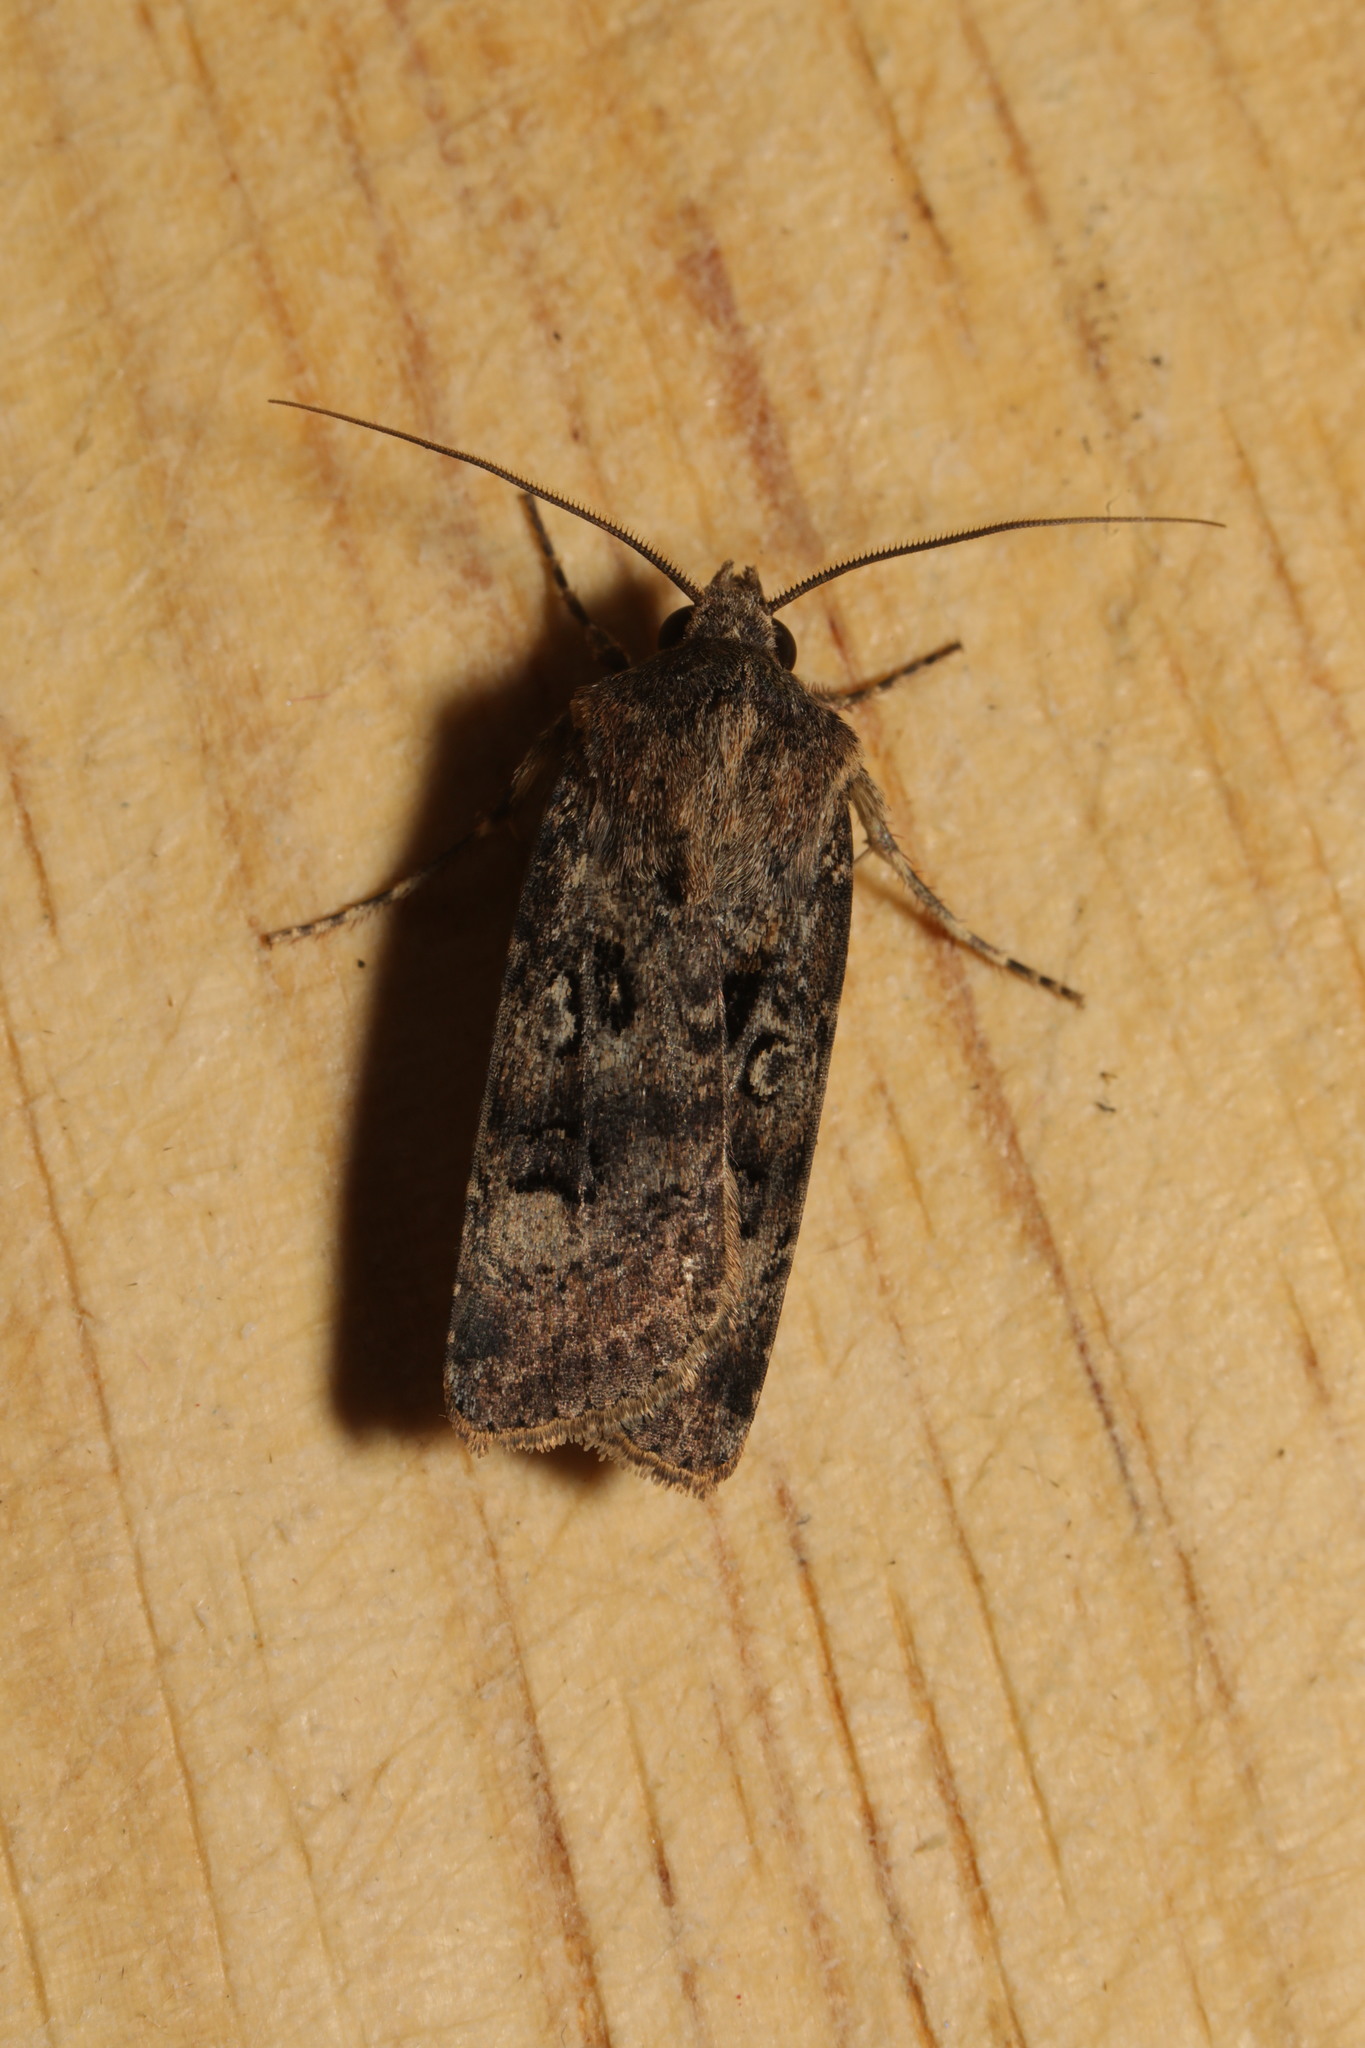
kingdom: Animalia
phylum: Arthropoda
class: Insecta
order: Lepidoptera
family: Noctuidae
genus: Agrotis
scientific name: Agrotis trux
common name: Crescent dart
